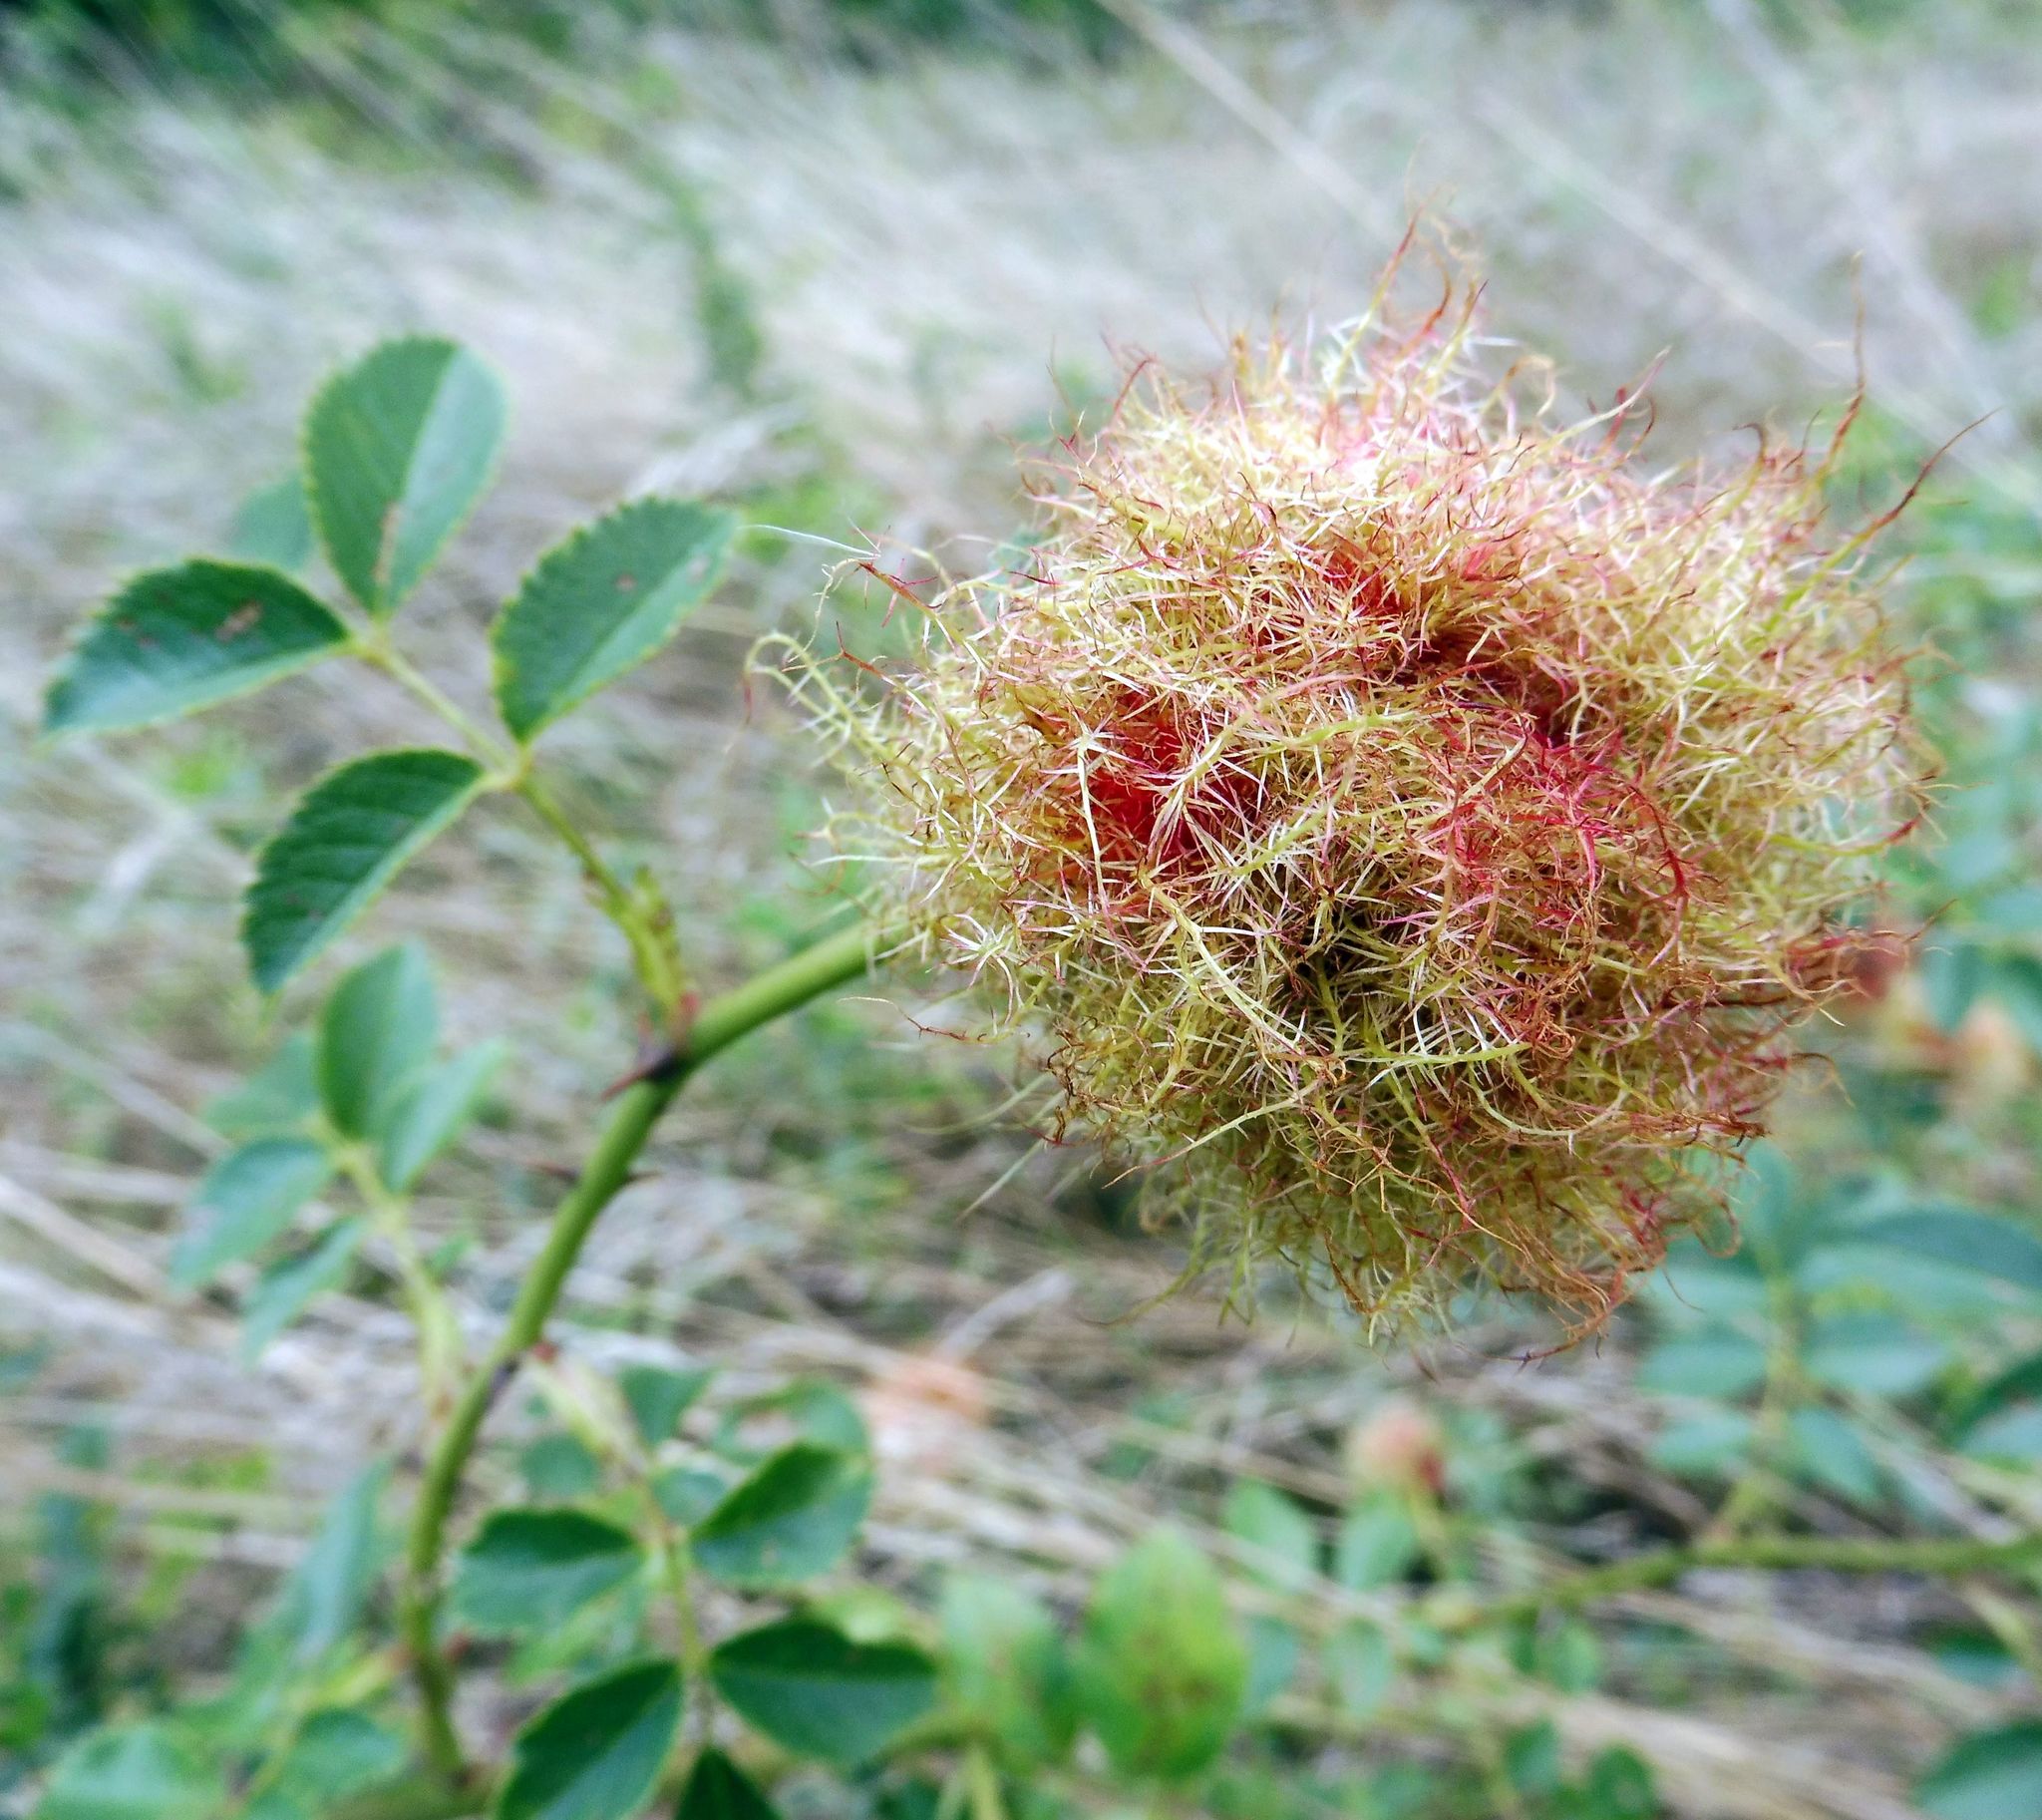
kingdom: Animalia
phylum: Arthropoda
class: Insecta
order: Hymenoptera
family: Cynipidae
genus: Diplolepis
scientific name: Diplolepis rosae
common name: Bedeguar gall
